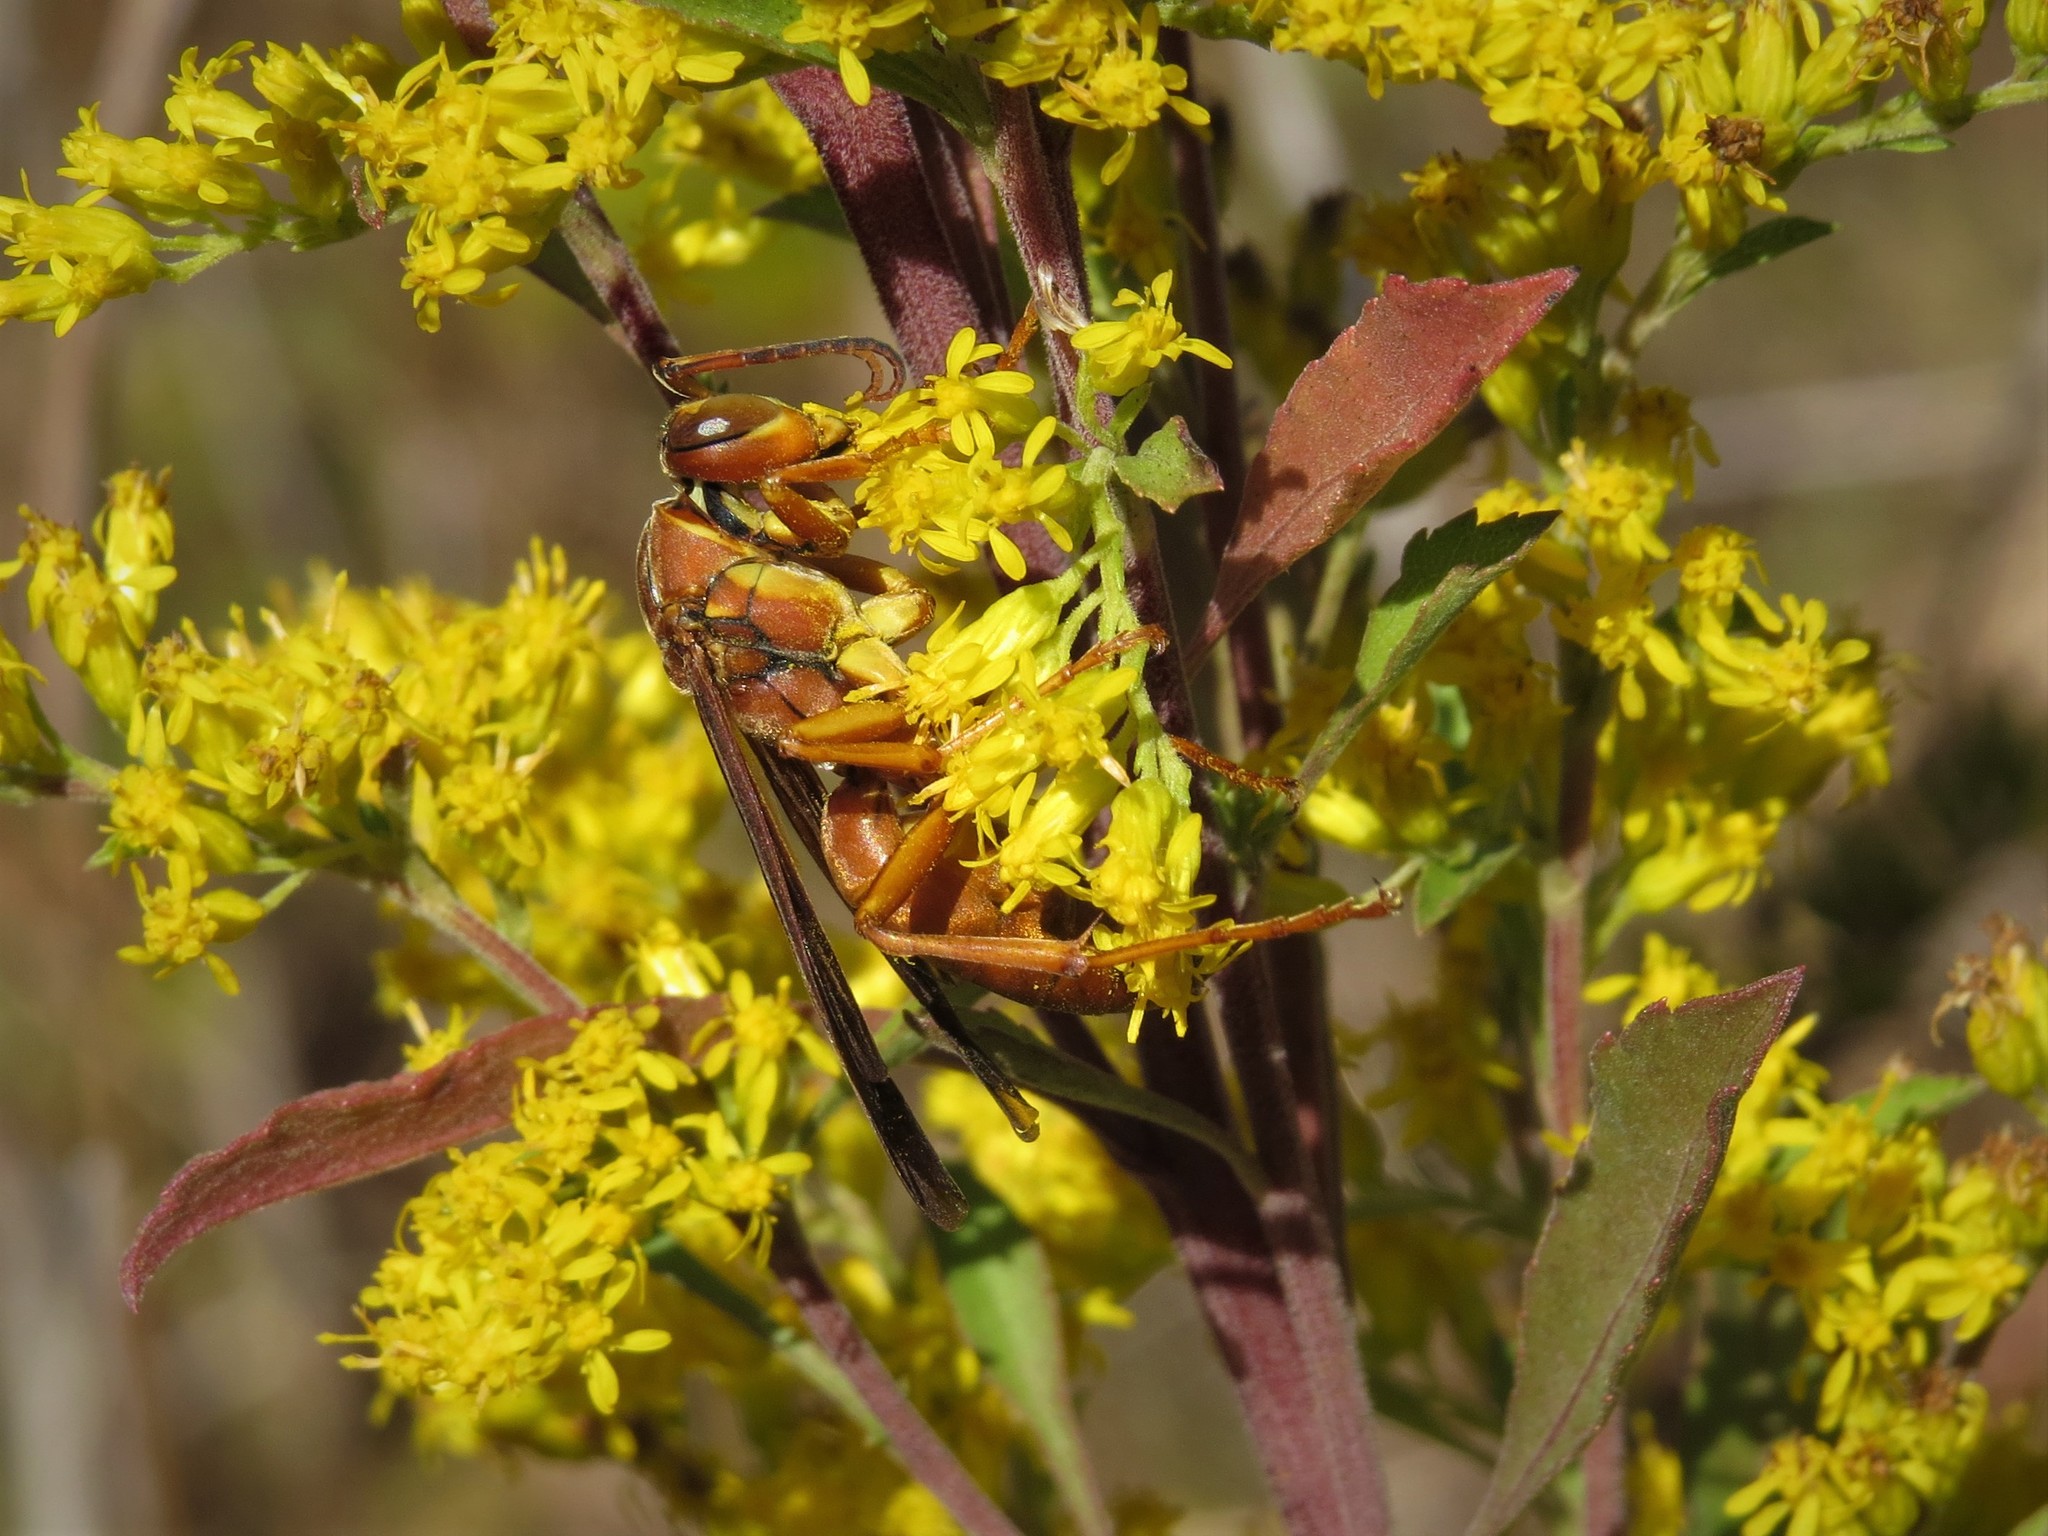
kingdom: Animalia
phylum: Arthropoda
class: Insecta
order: Hymenoptera
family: Eumenidae
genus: Polistes
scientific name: Polistes carolina
